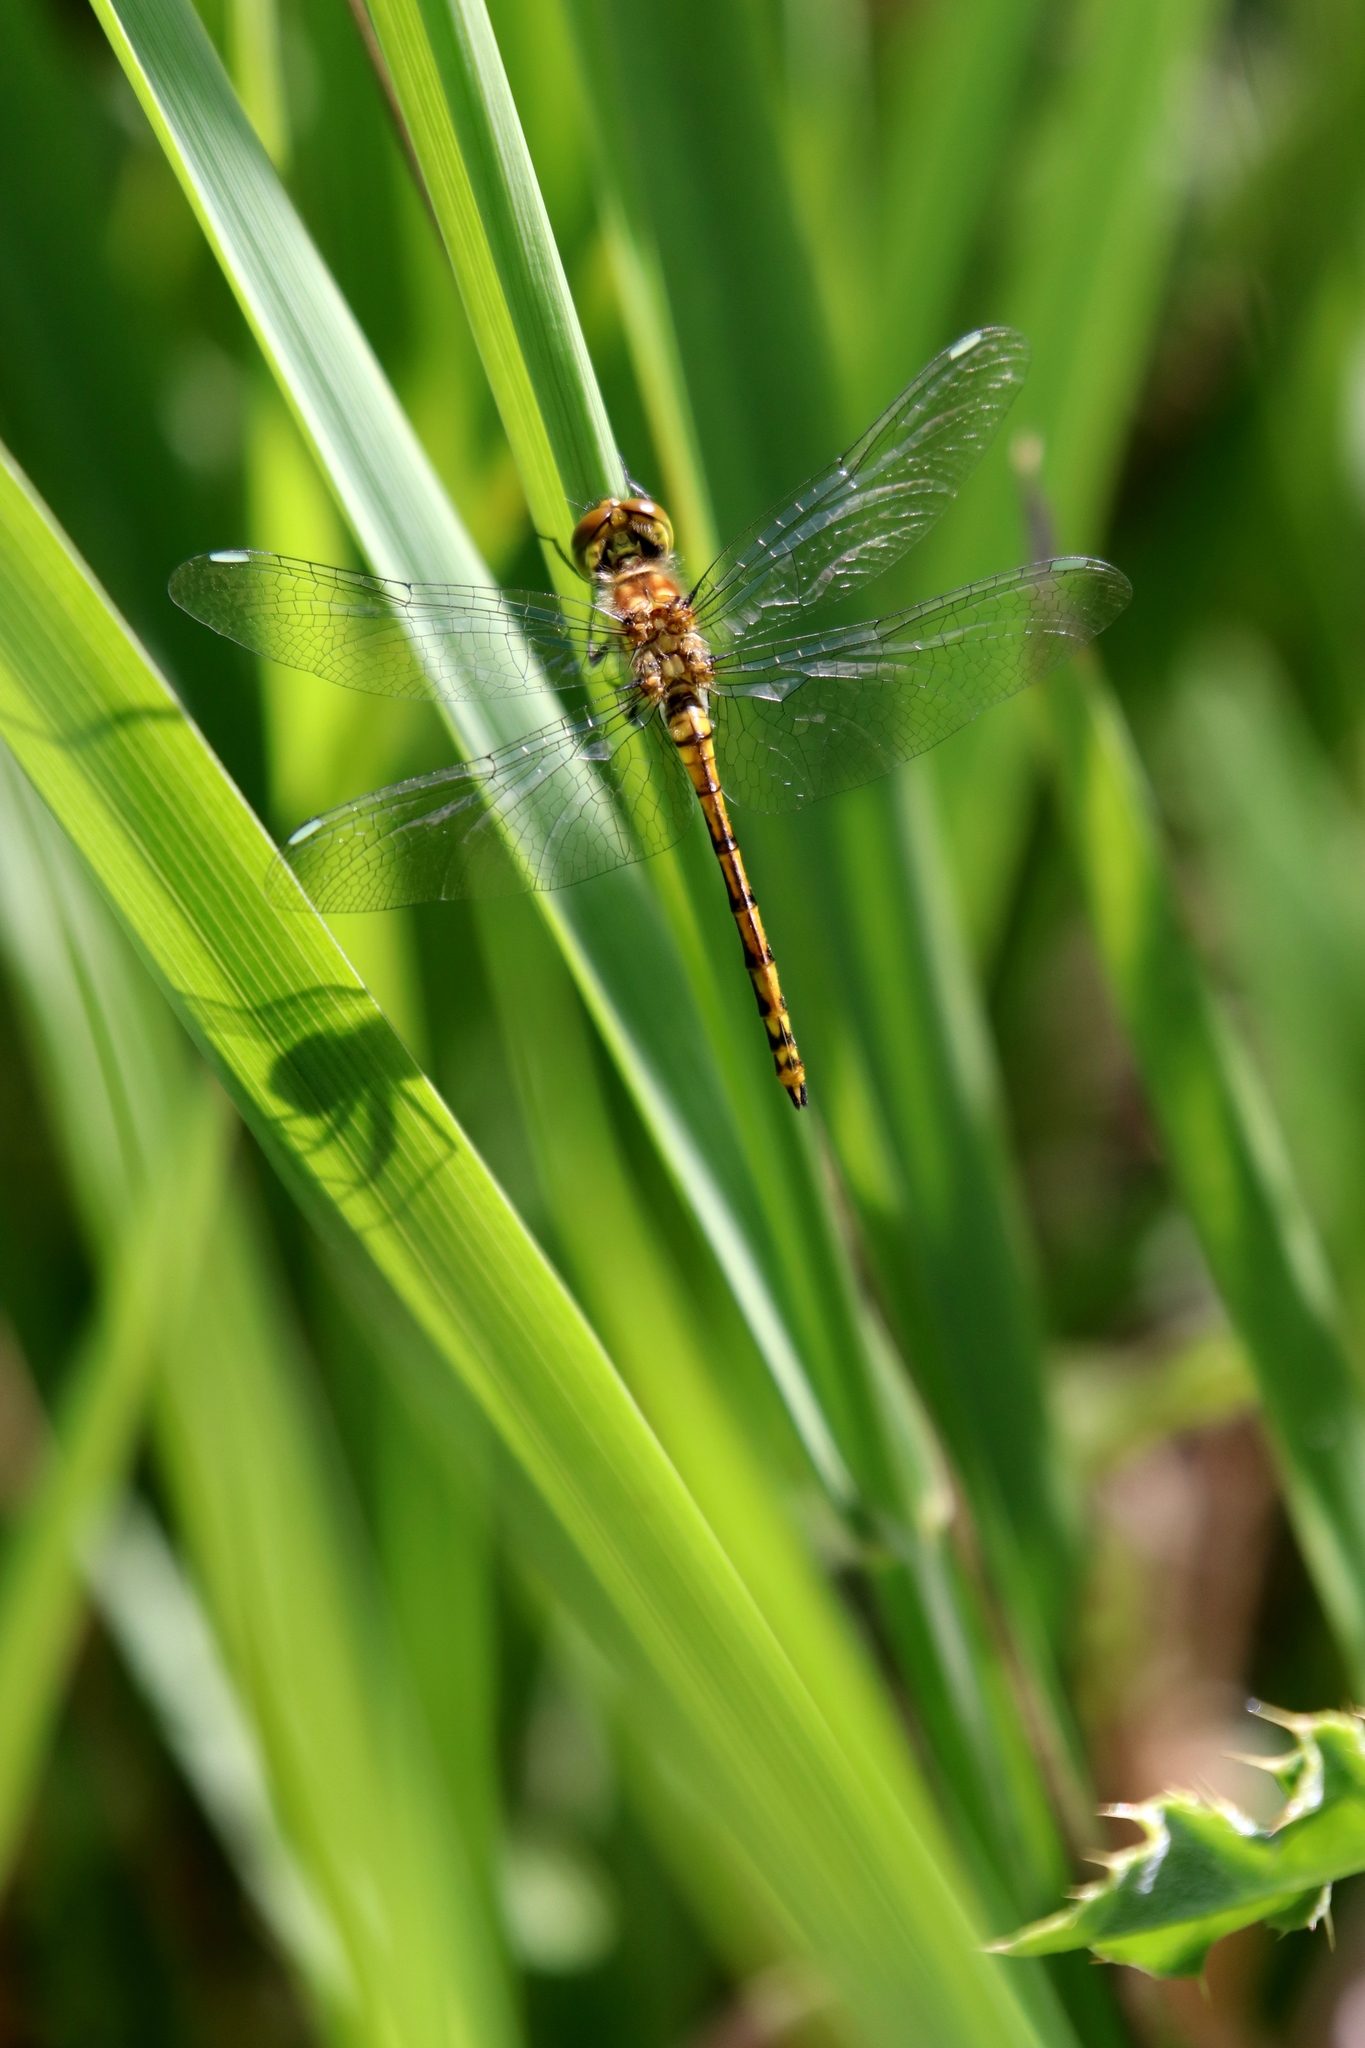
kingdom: Animalia
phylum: Arthropoda
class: Insecta
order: Odonata
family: Libellulidae
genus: Sympetrum
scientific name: Sympetrum danae
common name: Black darter
